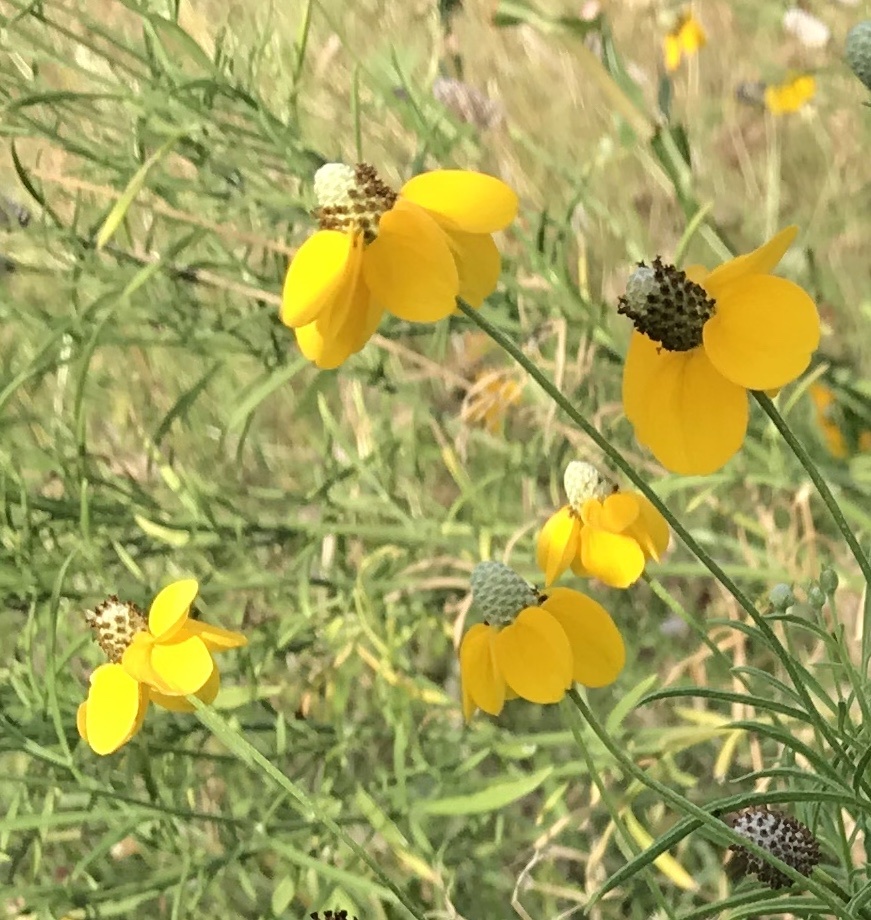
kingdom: Plantae
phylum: Tracheophyta
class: Magnoliopsida
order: Asterales
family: Asteraceae
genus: Ratibida
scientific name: Ratibida columnifera
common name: Prairie coneflower
